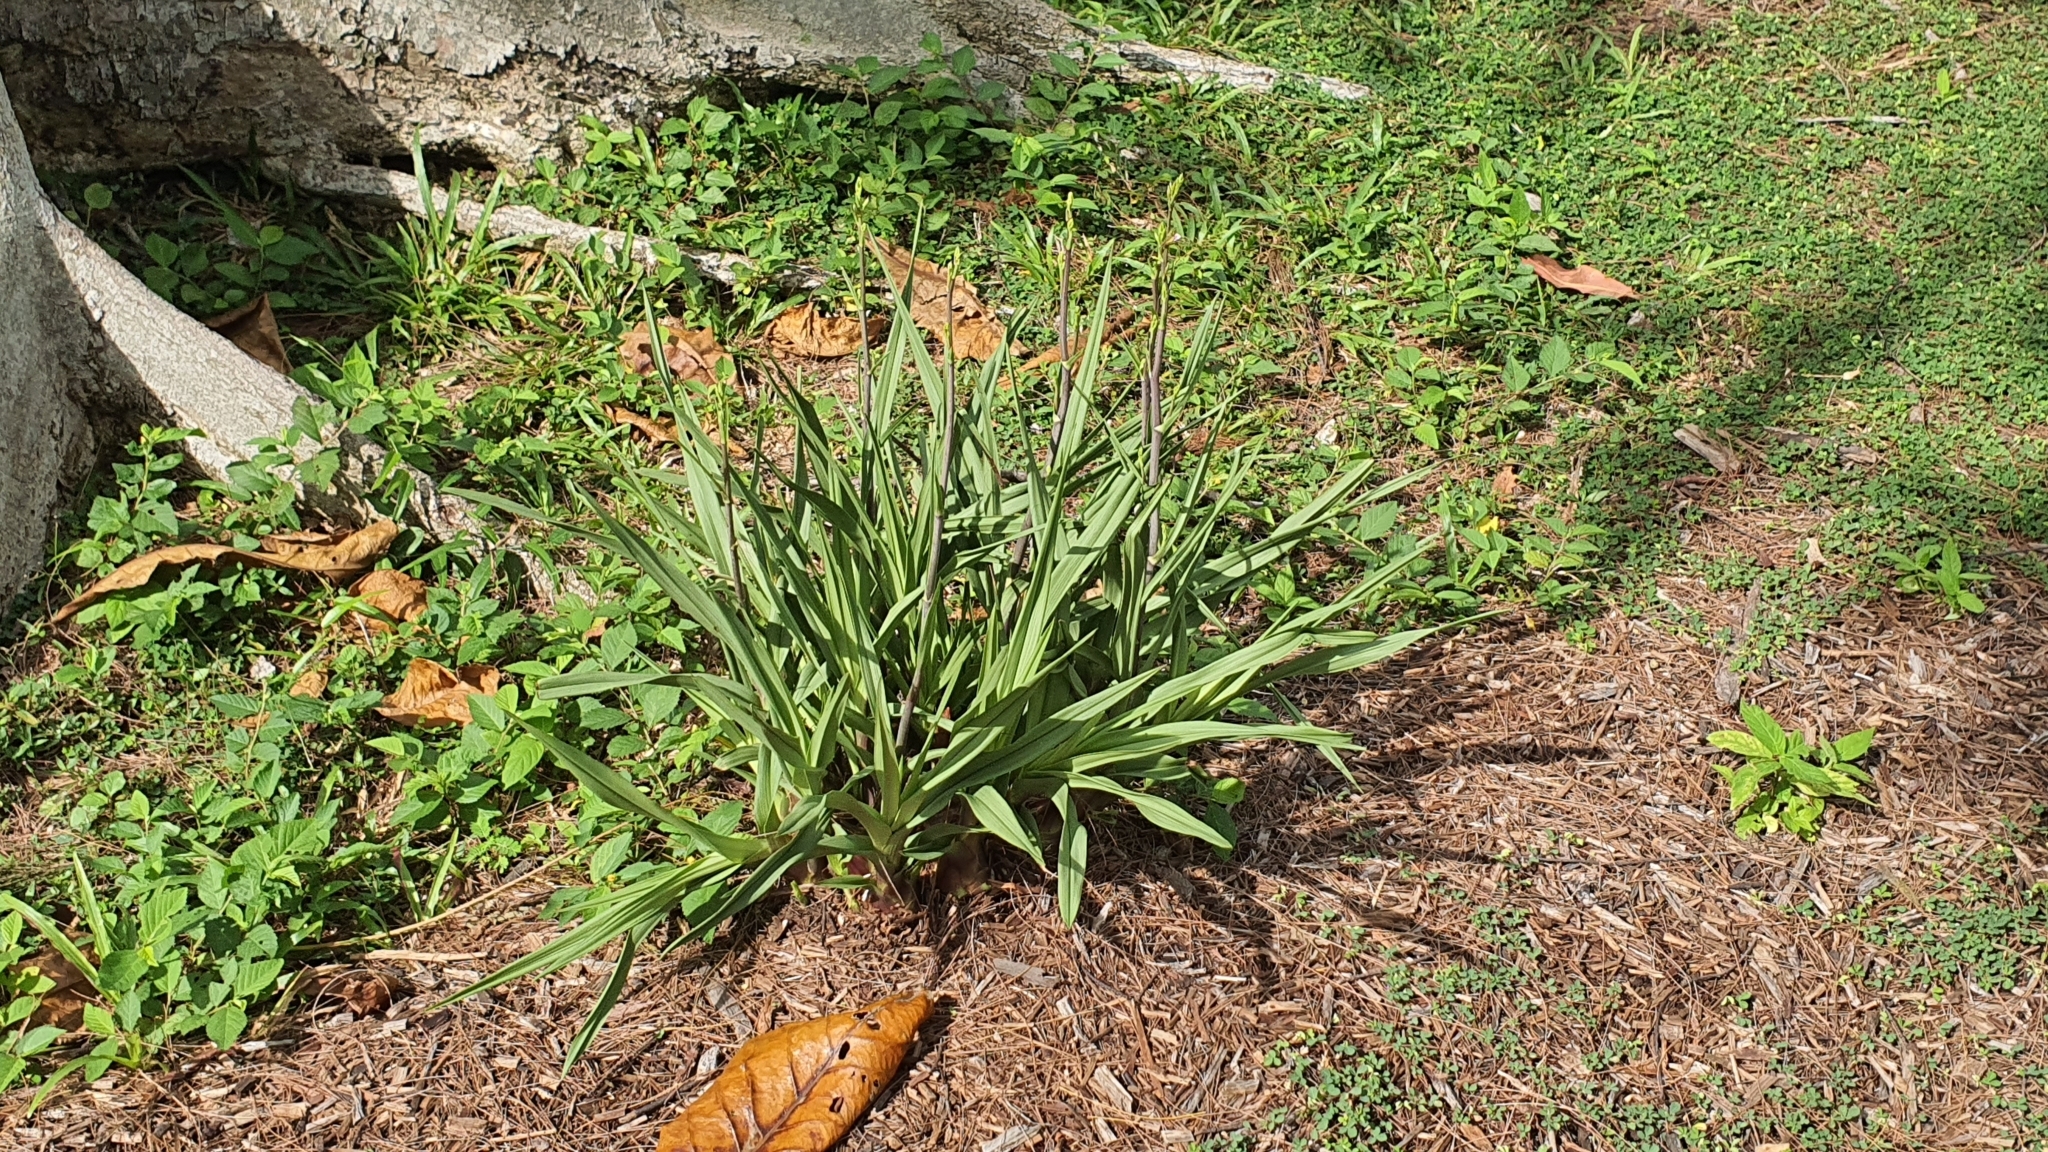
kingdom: Plantae
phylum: Tracheophyta
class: Liliopsida
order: Asparagales
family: Orchidaceae
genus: Eulophia
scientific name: Eulophia graminea
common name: Orchid
